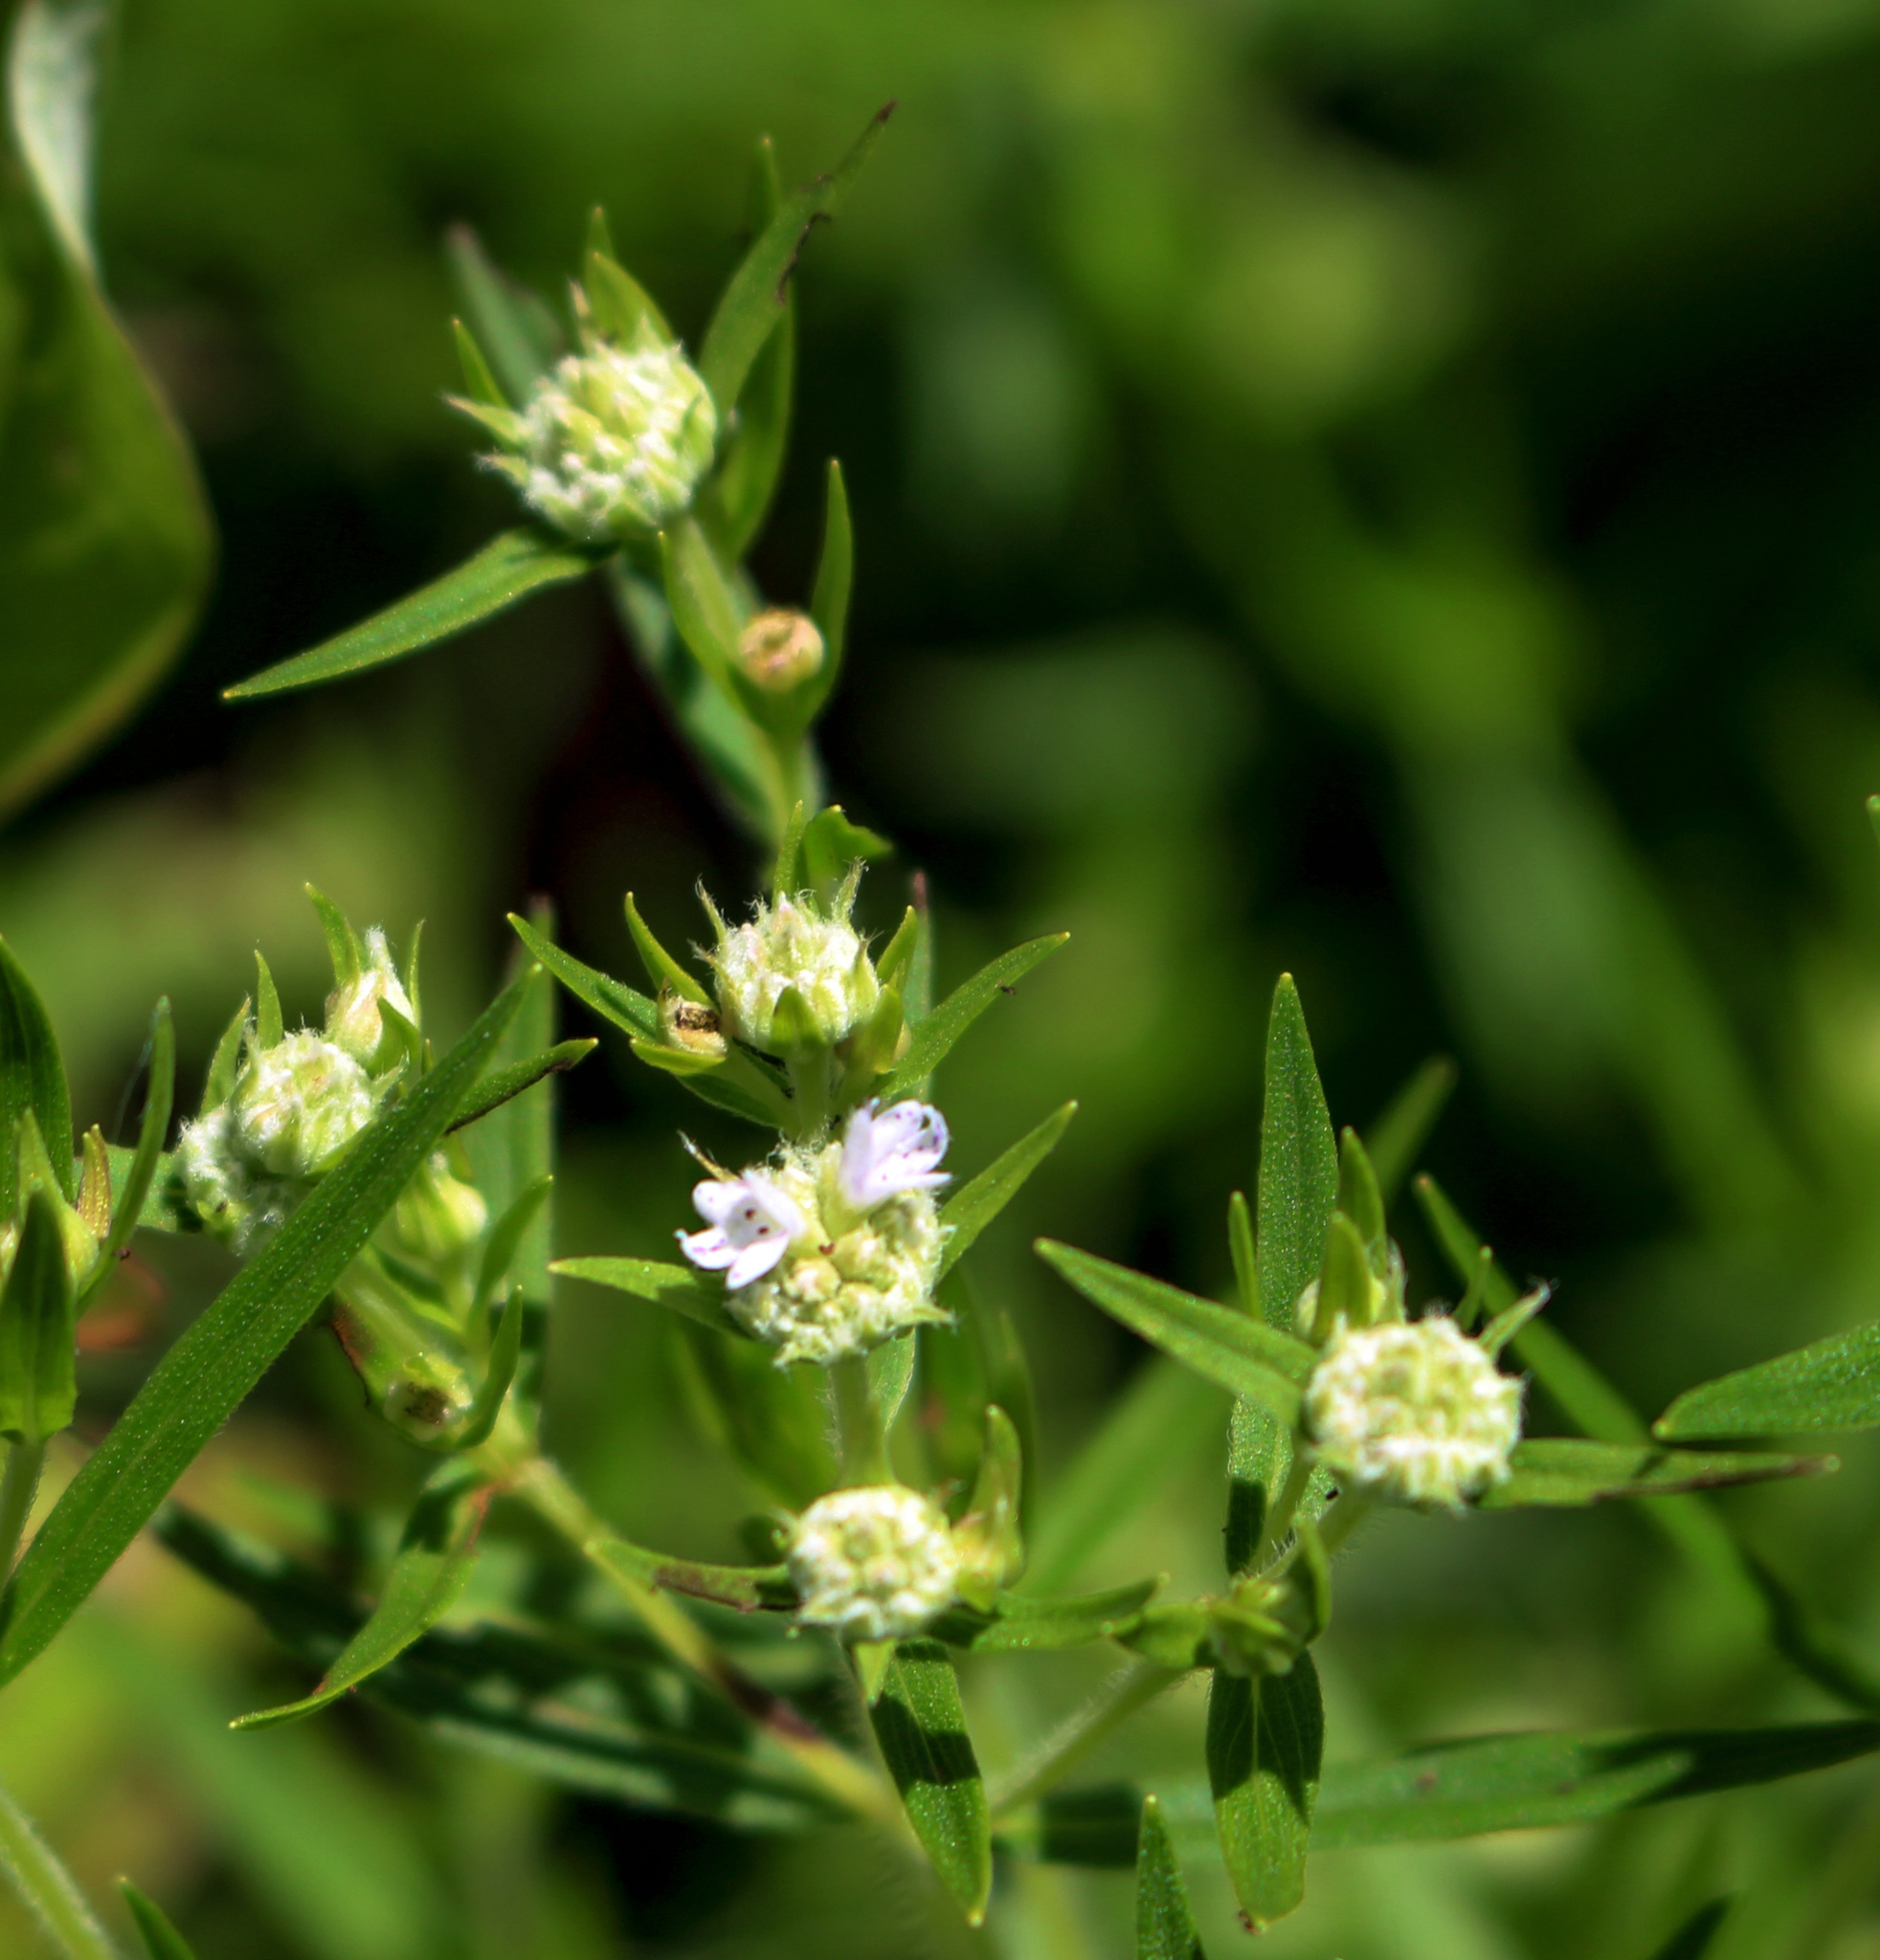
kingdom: Plantae
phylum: Tracheophyta
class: Magnoliopsida
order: Lamiales
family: Lamiaceae
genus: Pycnanthemum
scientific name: Pycnanthemum virginianum
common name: Virginia mountain-mint
